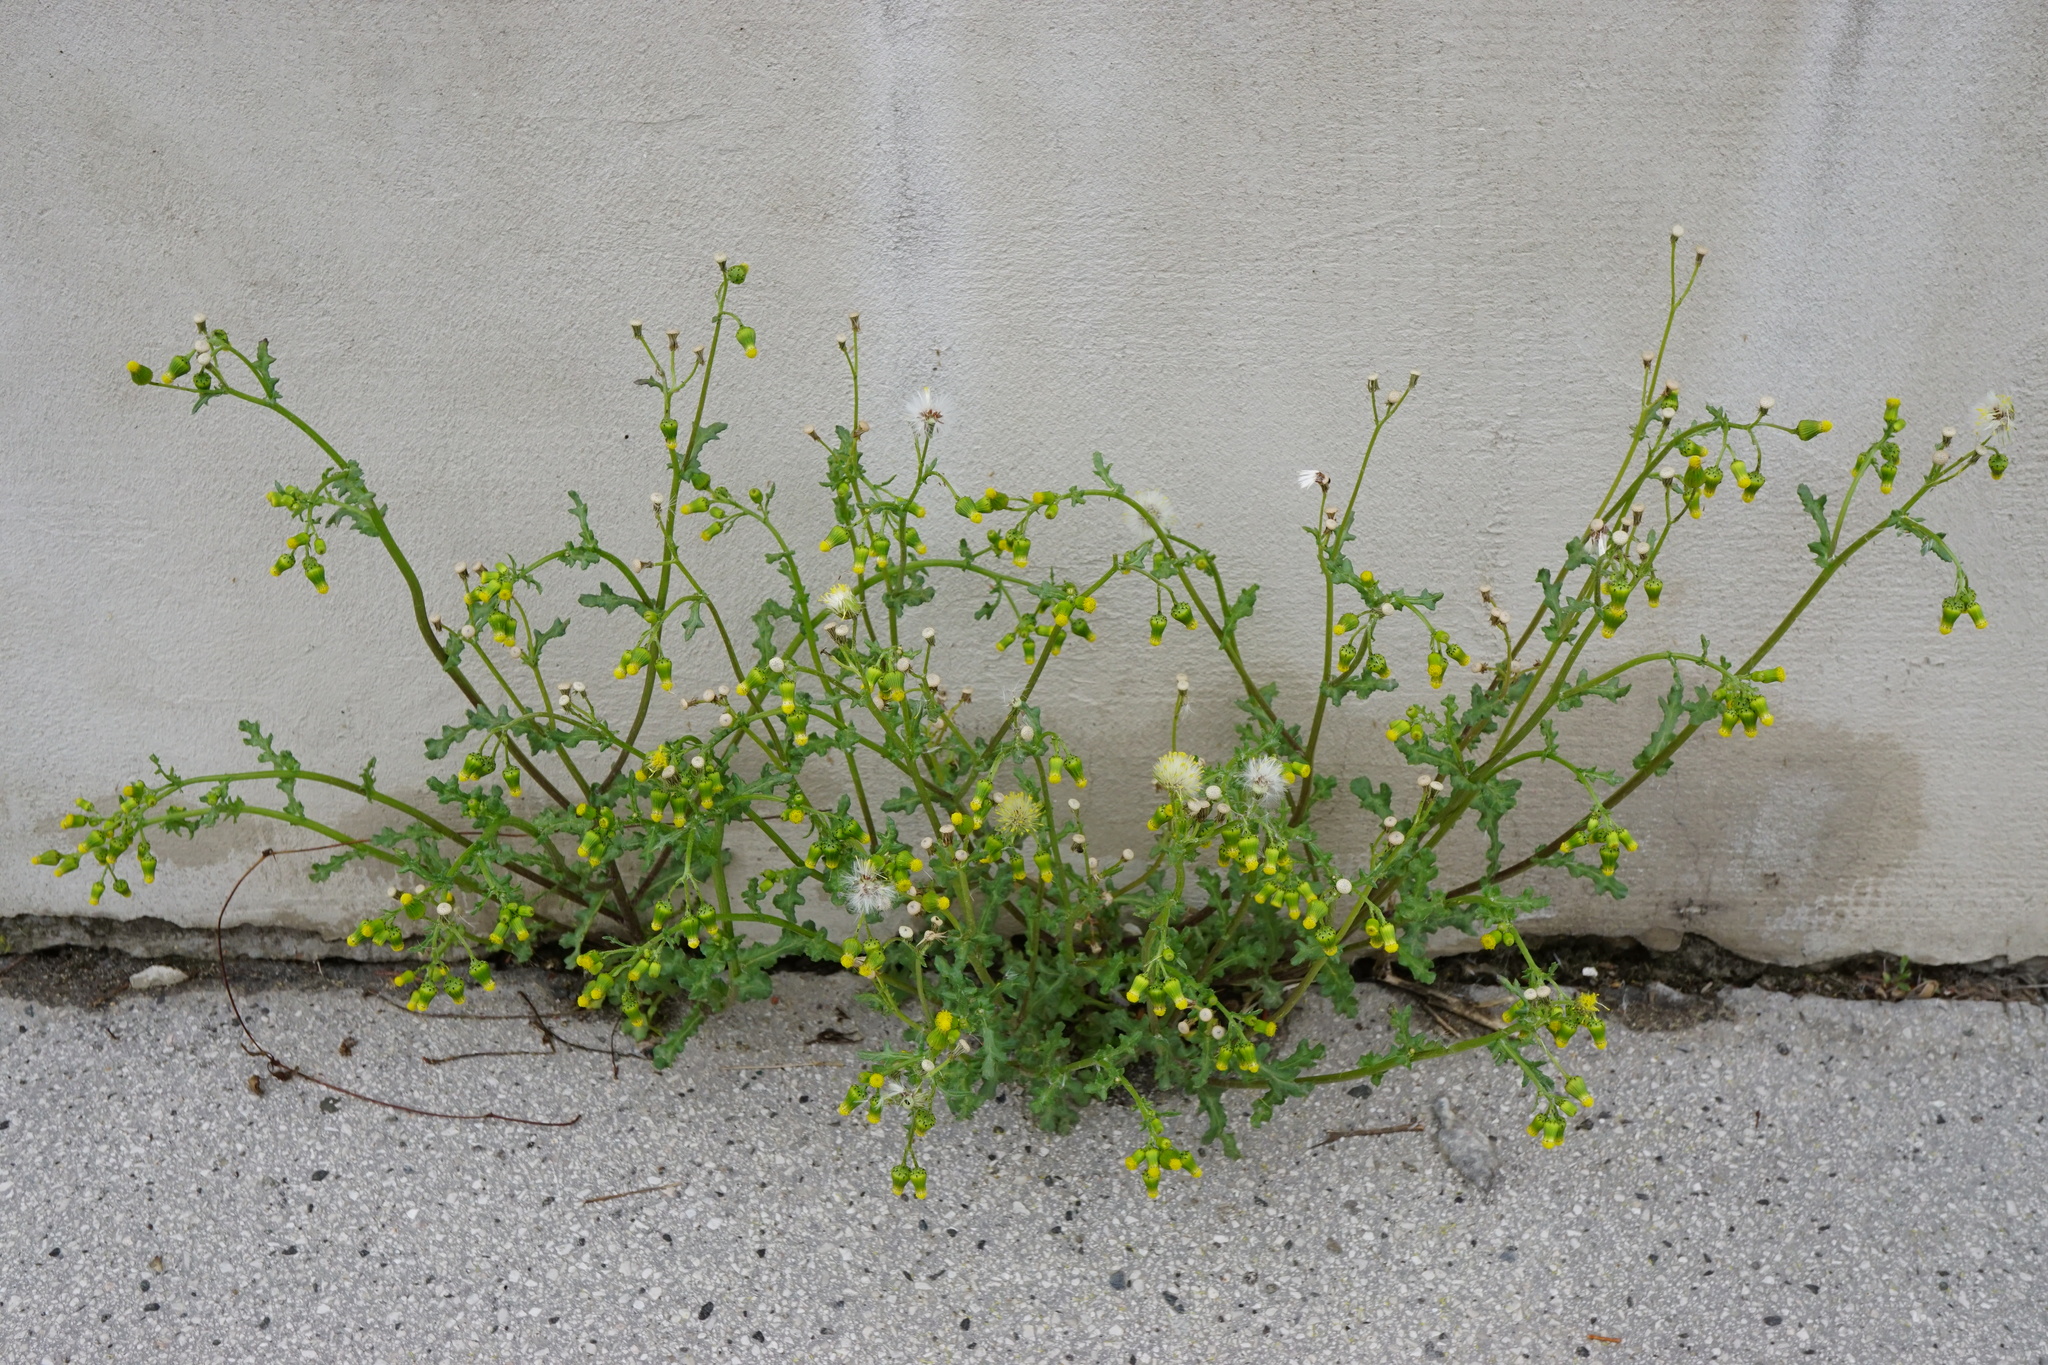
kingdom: Plantae
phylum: Tracheophyta
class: Magnoliopsida
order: Asterales
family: Asteraceae
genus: Senecio
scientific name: Senecio vulgaris
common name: Old-man-in-the-spring
